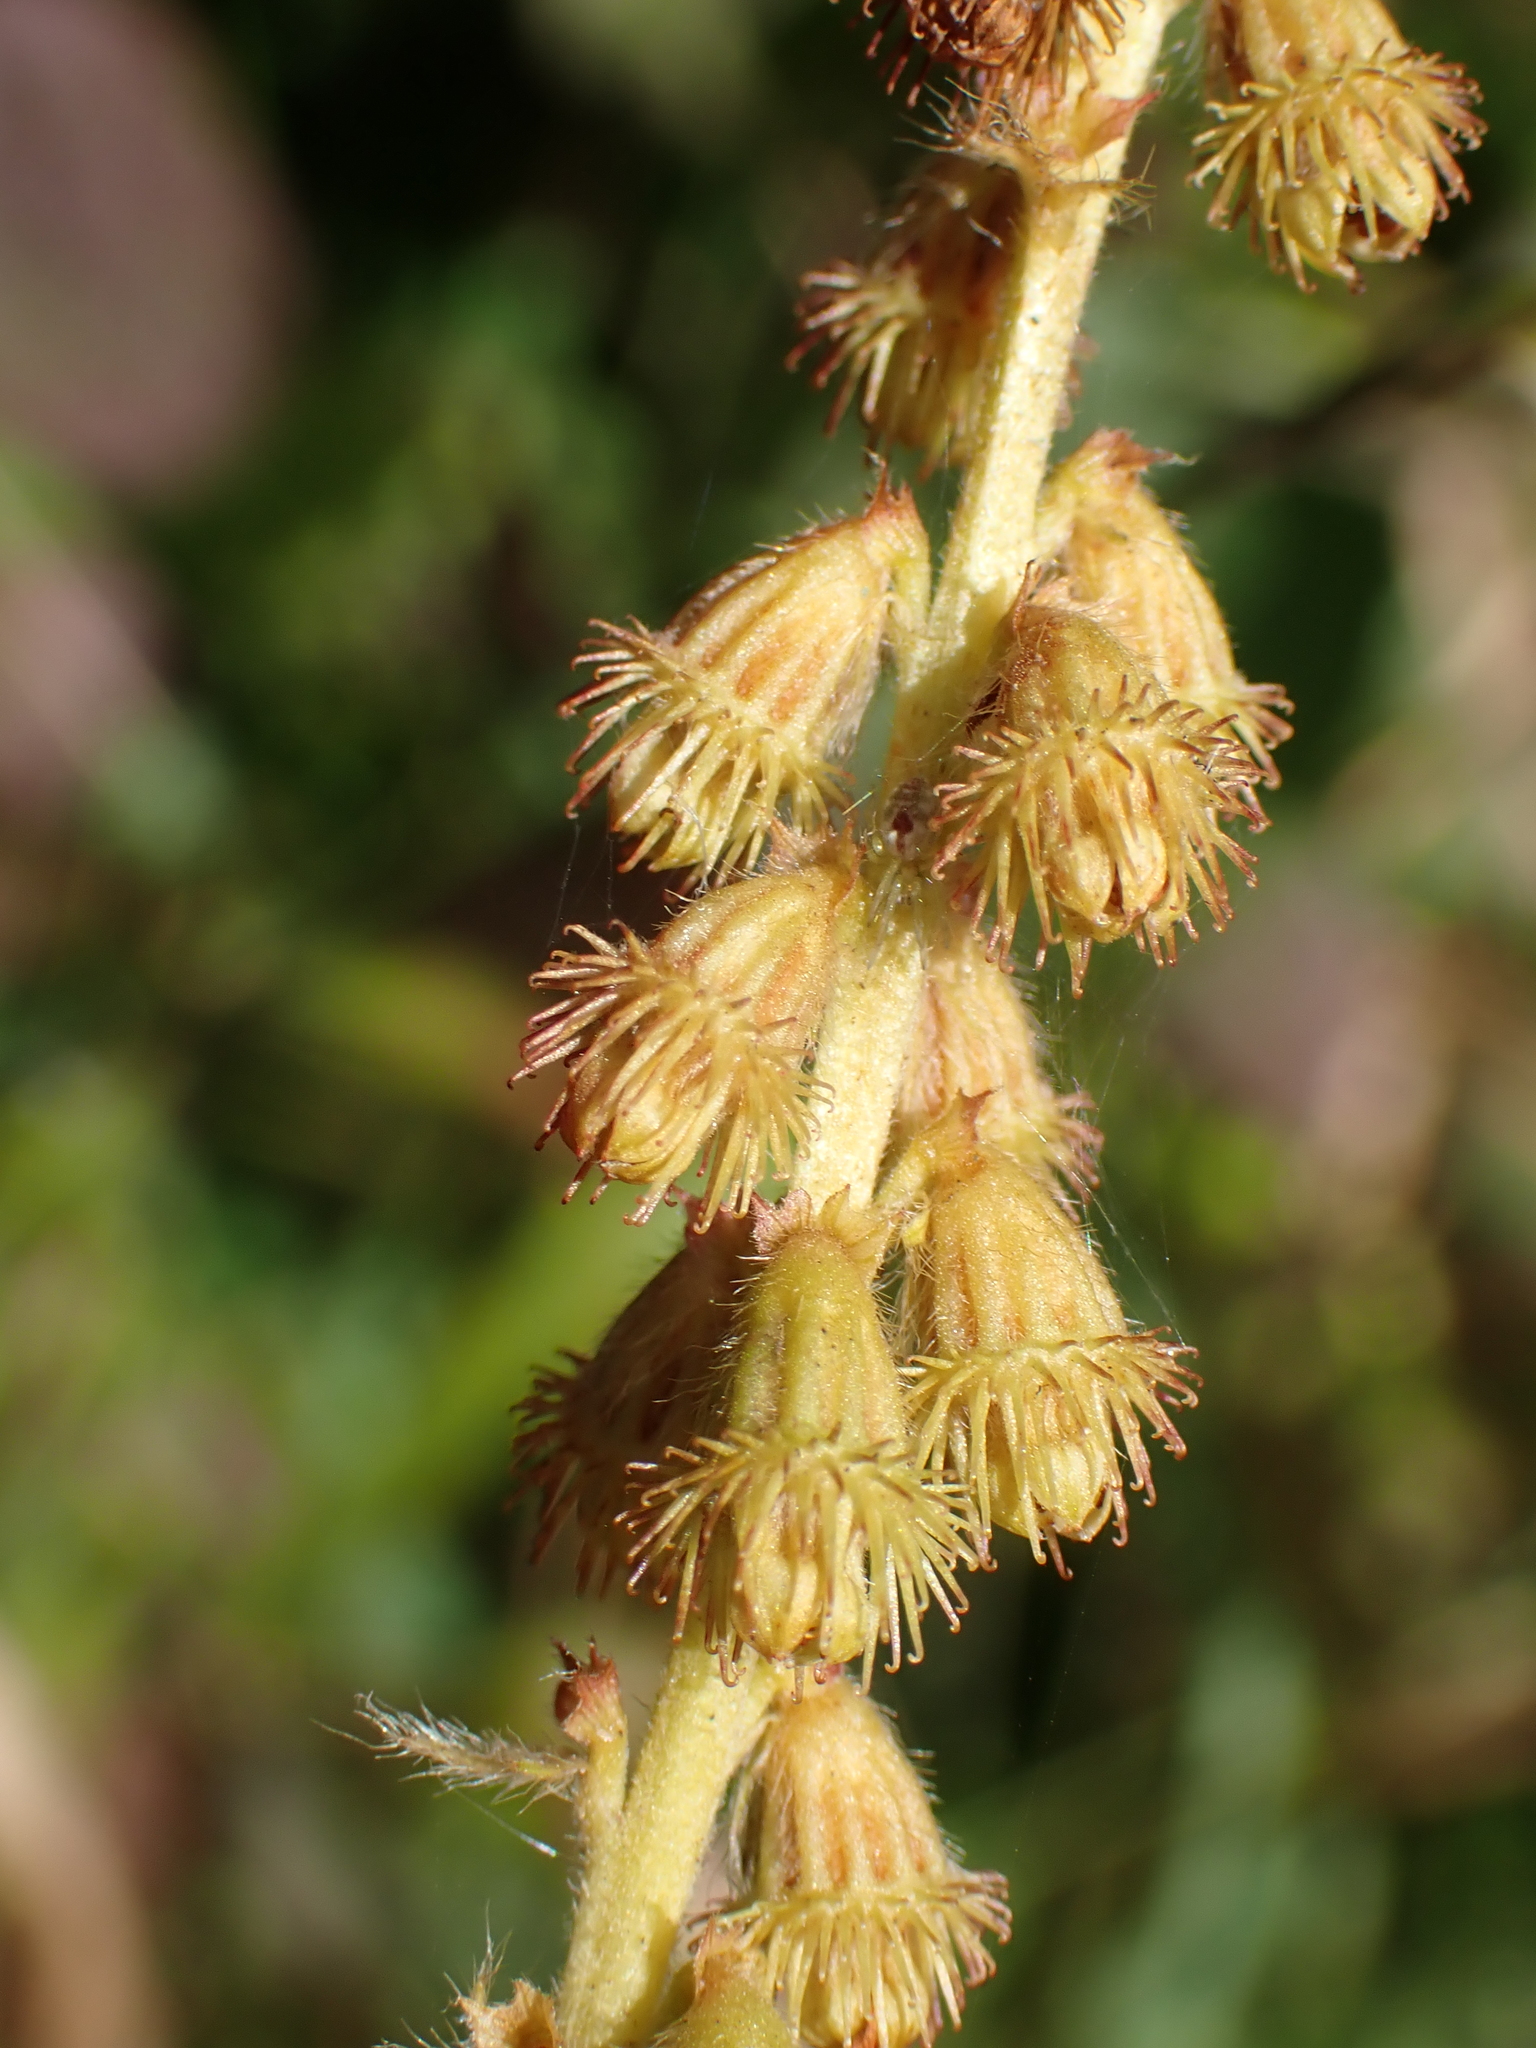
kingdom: Plantae
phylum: Tracheophyta
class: Magnoliopsida
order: Rosales
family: Rosaceae
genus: Agrimonia
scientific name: Agrimonia eupatoria
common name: Agrimony
